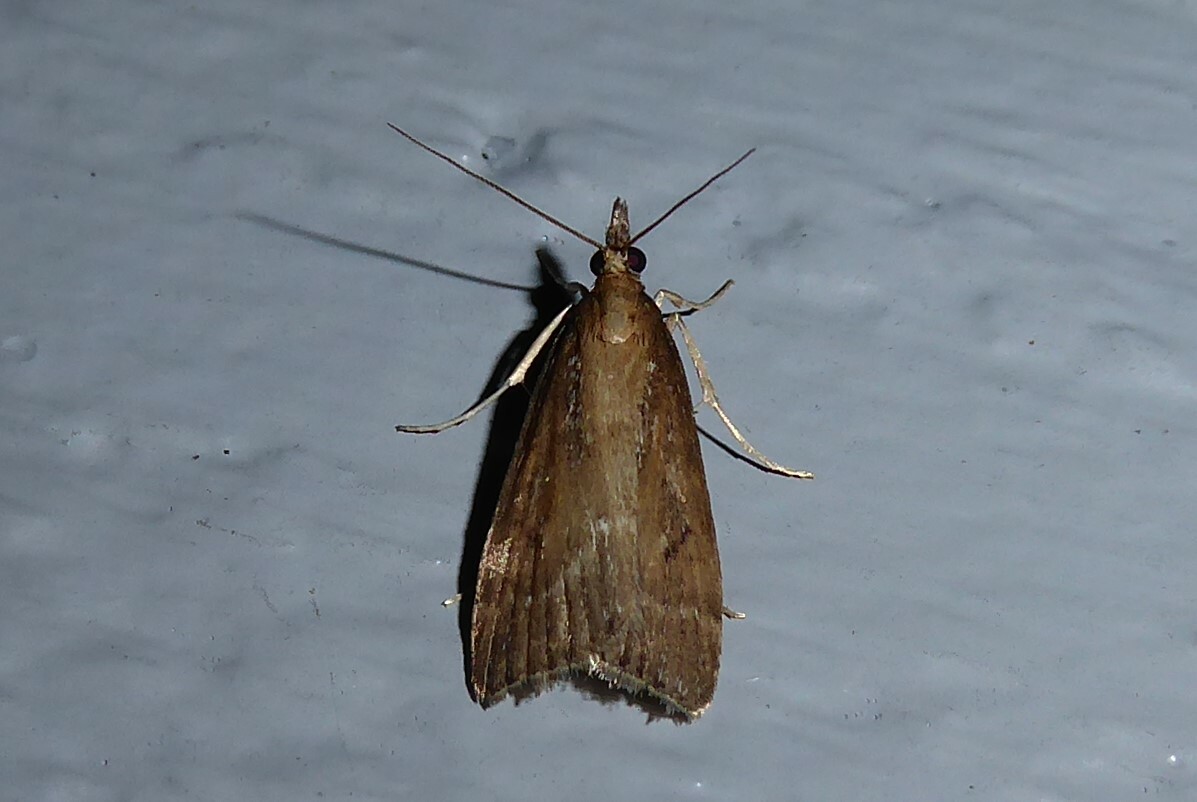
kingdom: Animalia
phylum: Arthropoda
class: Insecta
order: Lepidoptera
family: Crambidae
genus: Eudonia
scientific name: Eudonia octophora
